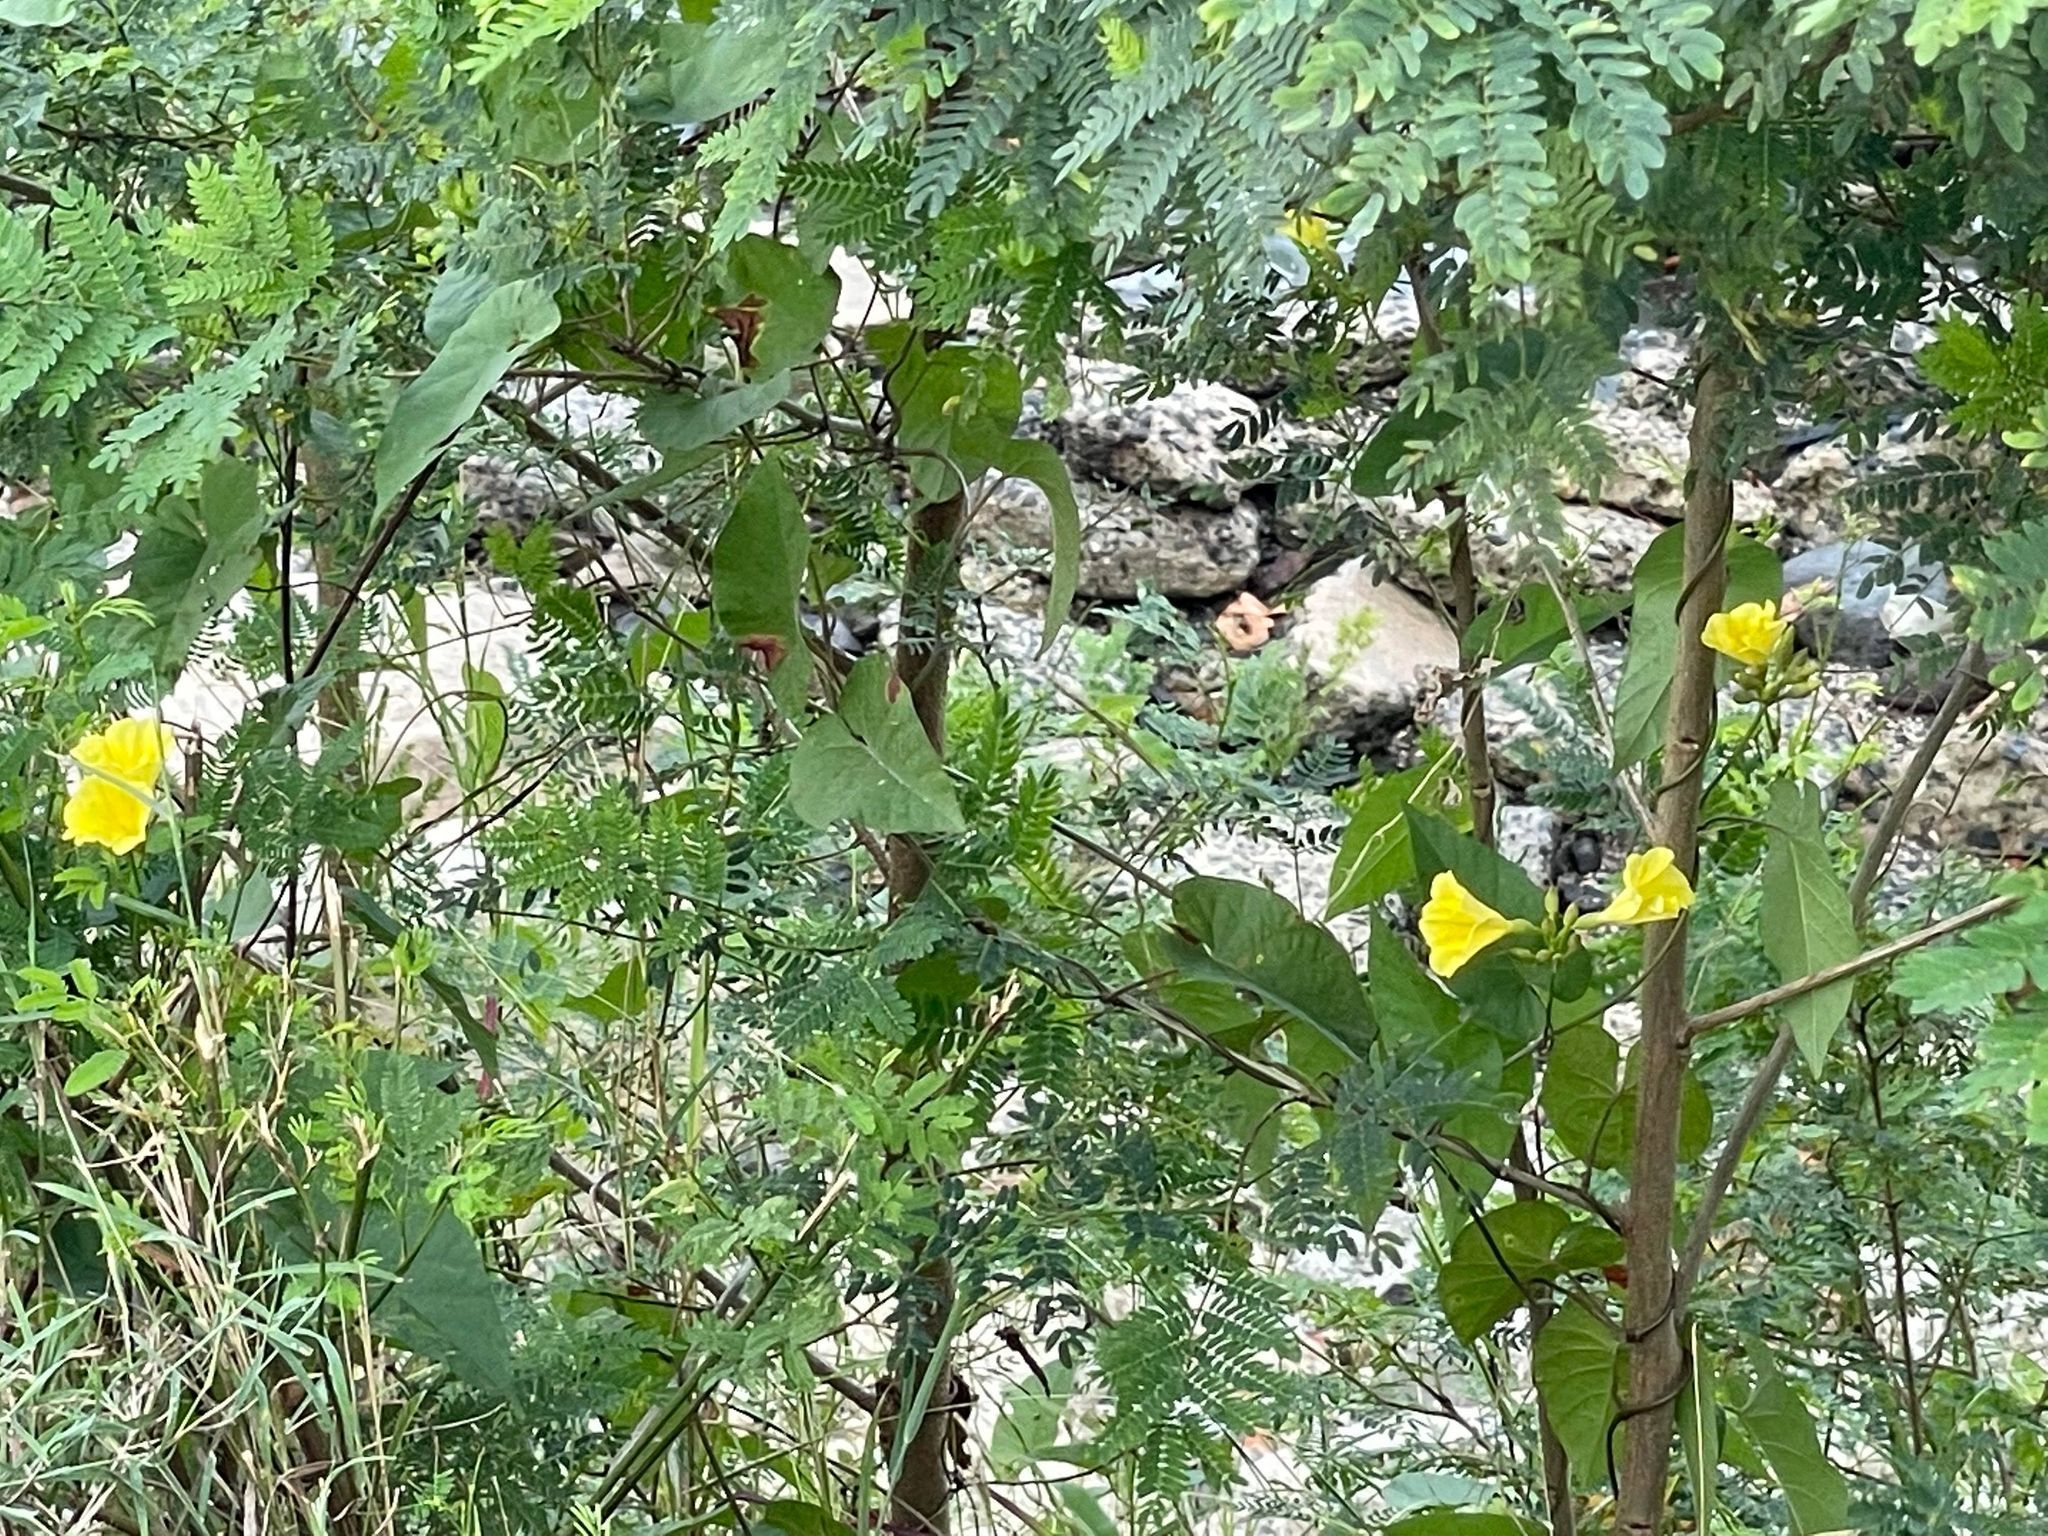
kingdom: Plantae
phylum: Tracheophyta
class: Magnoliopsida
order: Solanales
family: Convolvulaceae
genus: Camonea
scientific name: Camonea umbellata
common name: Hogvine
